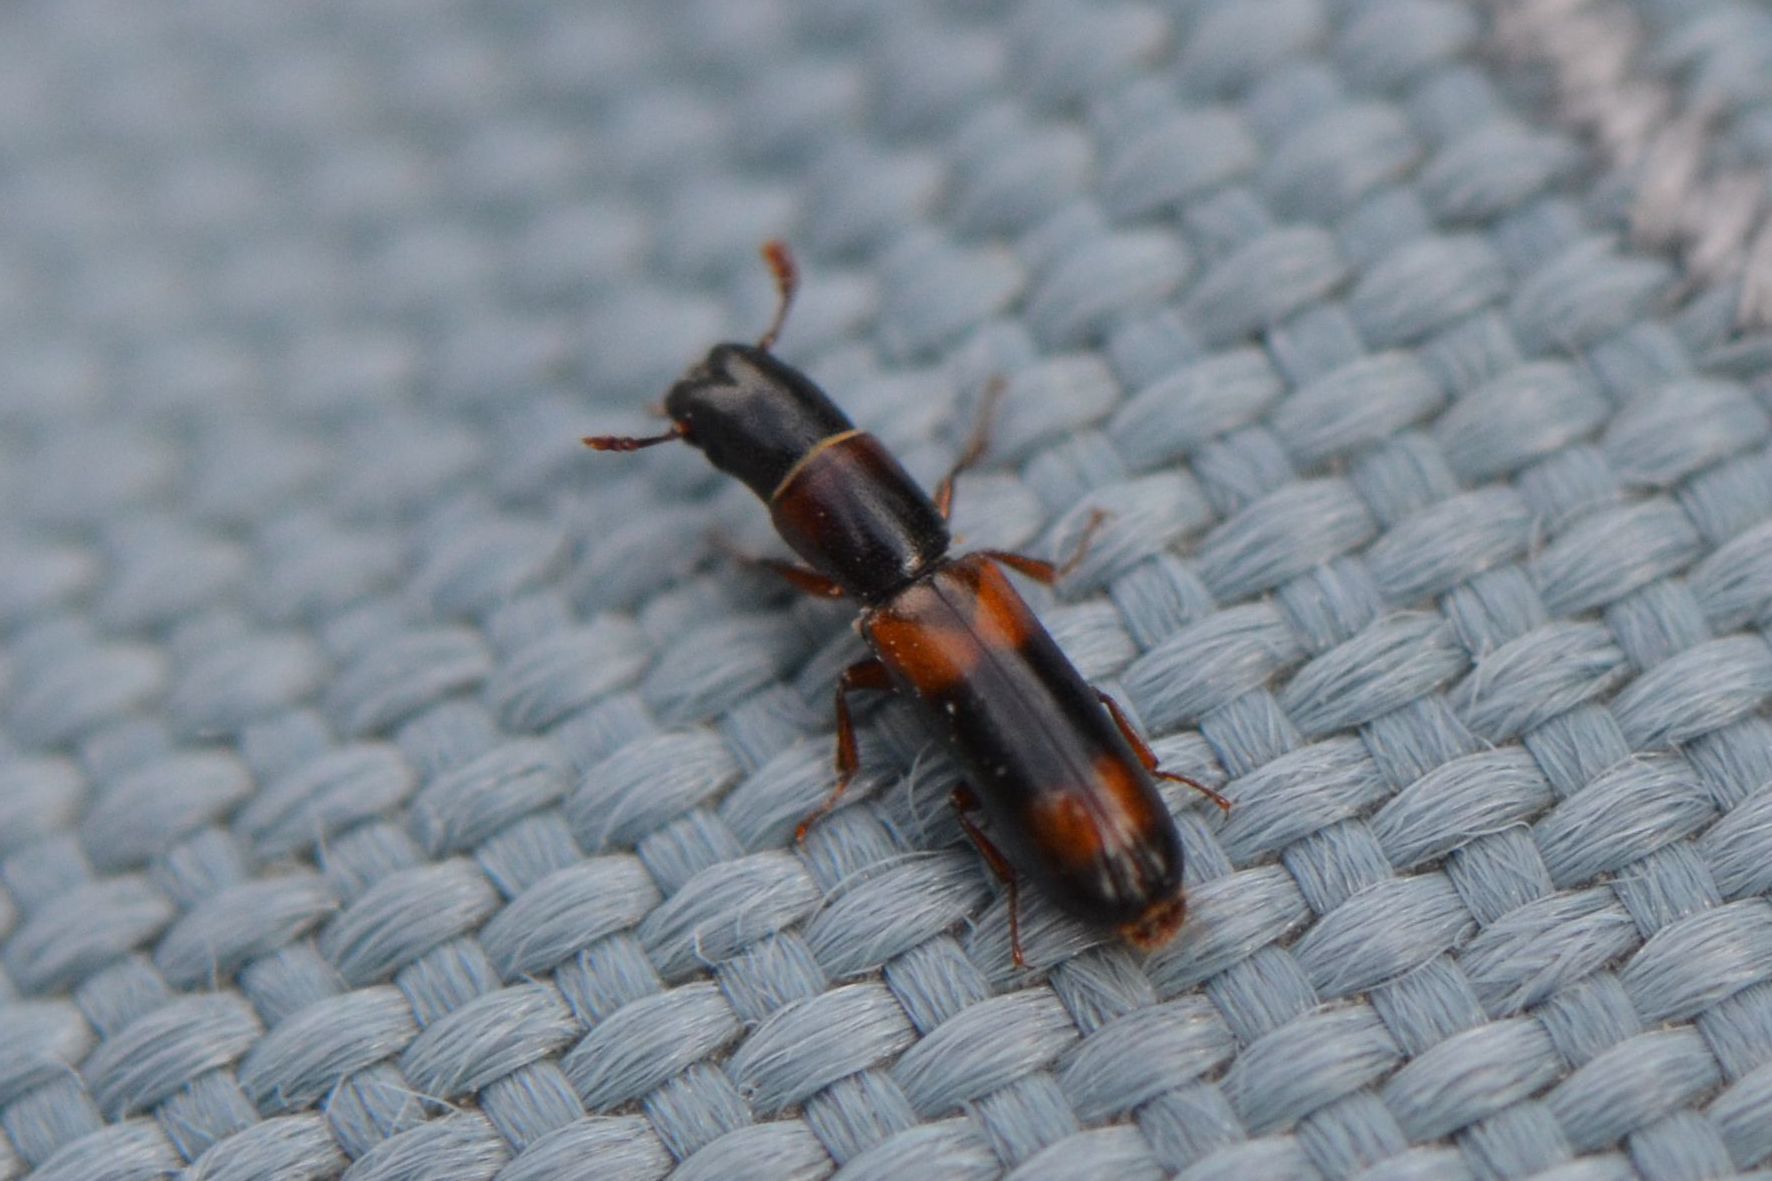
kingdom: Animalia
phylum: Arthropoda
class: Insecta
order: Coleoptera
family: Trogossitidae
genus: Nemozoma
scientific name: Nemozoma caucasicum
